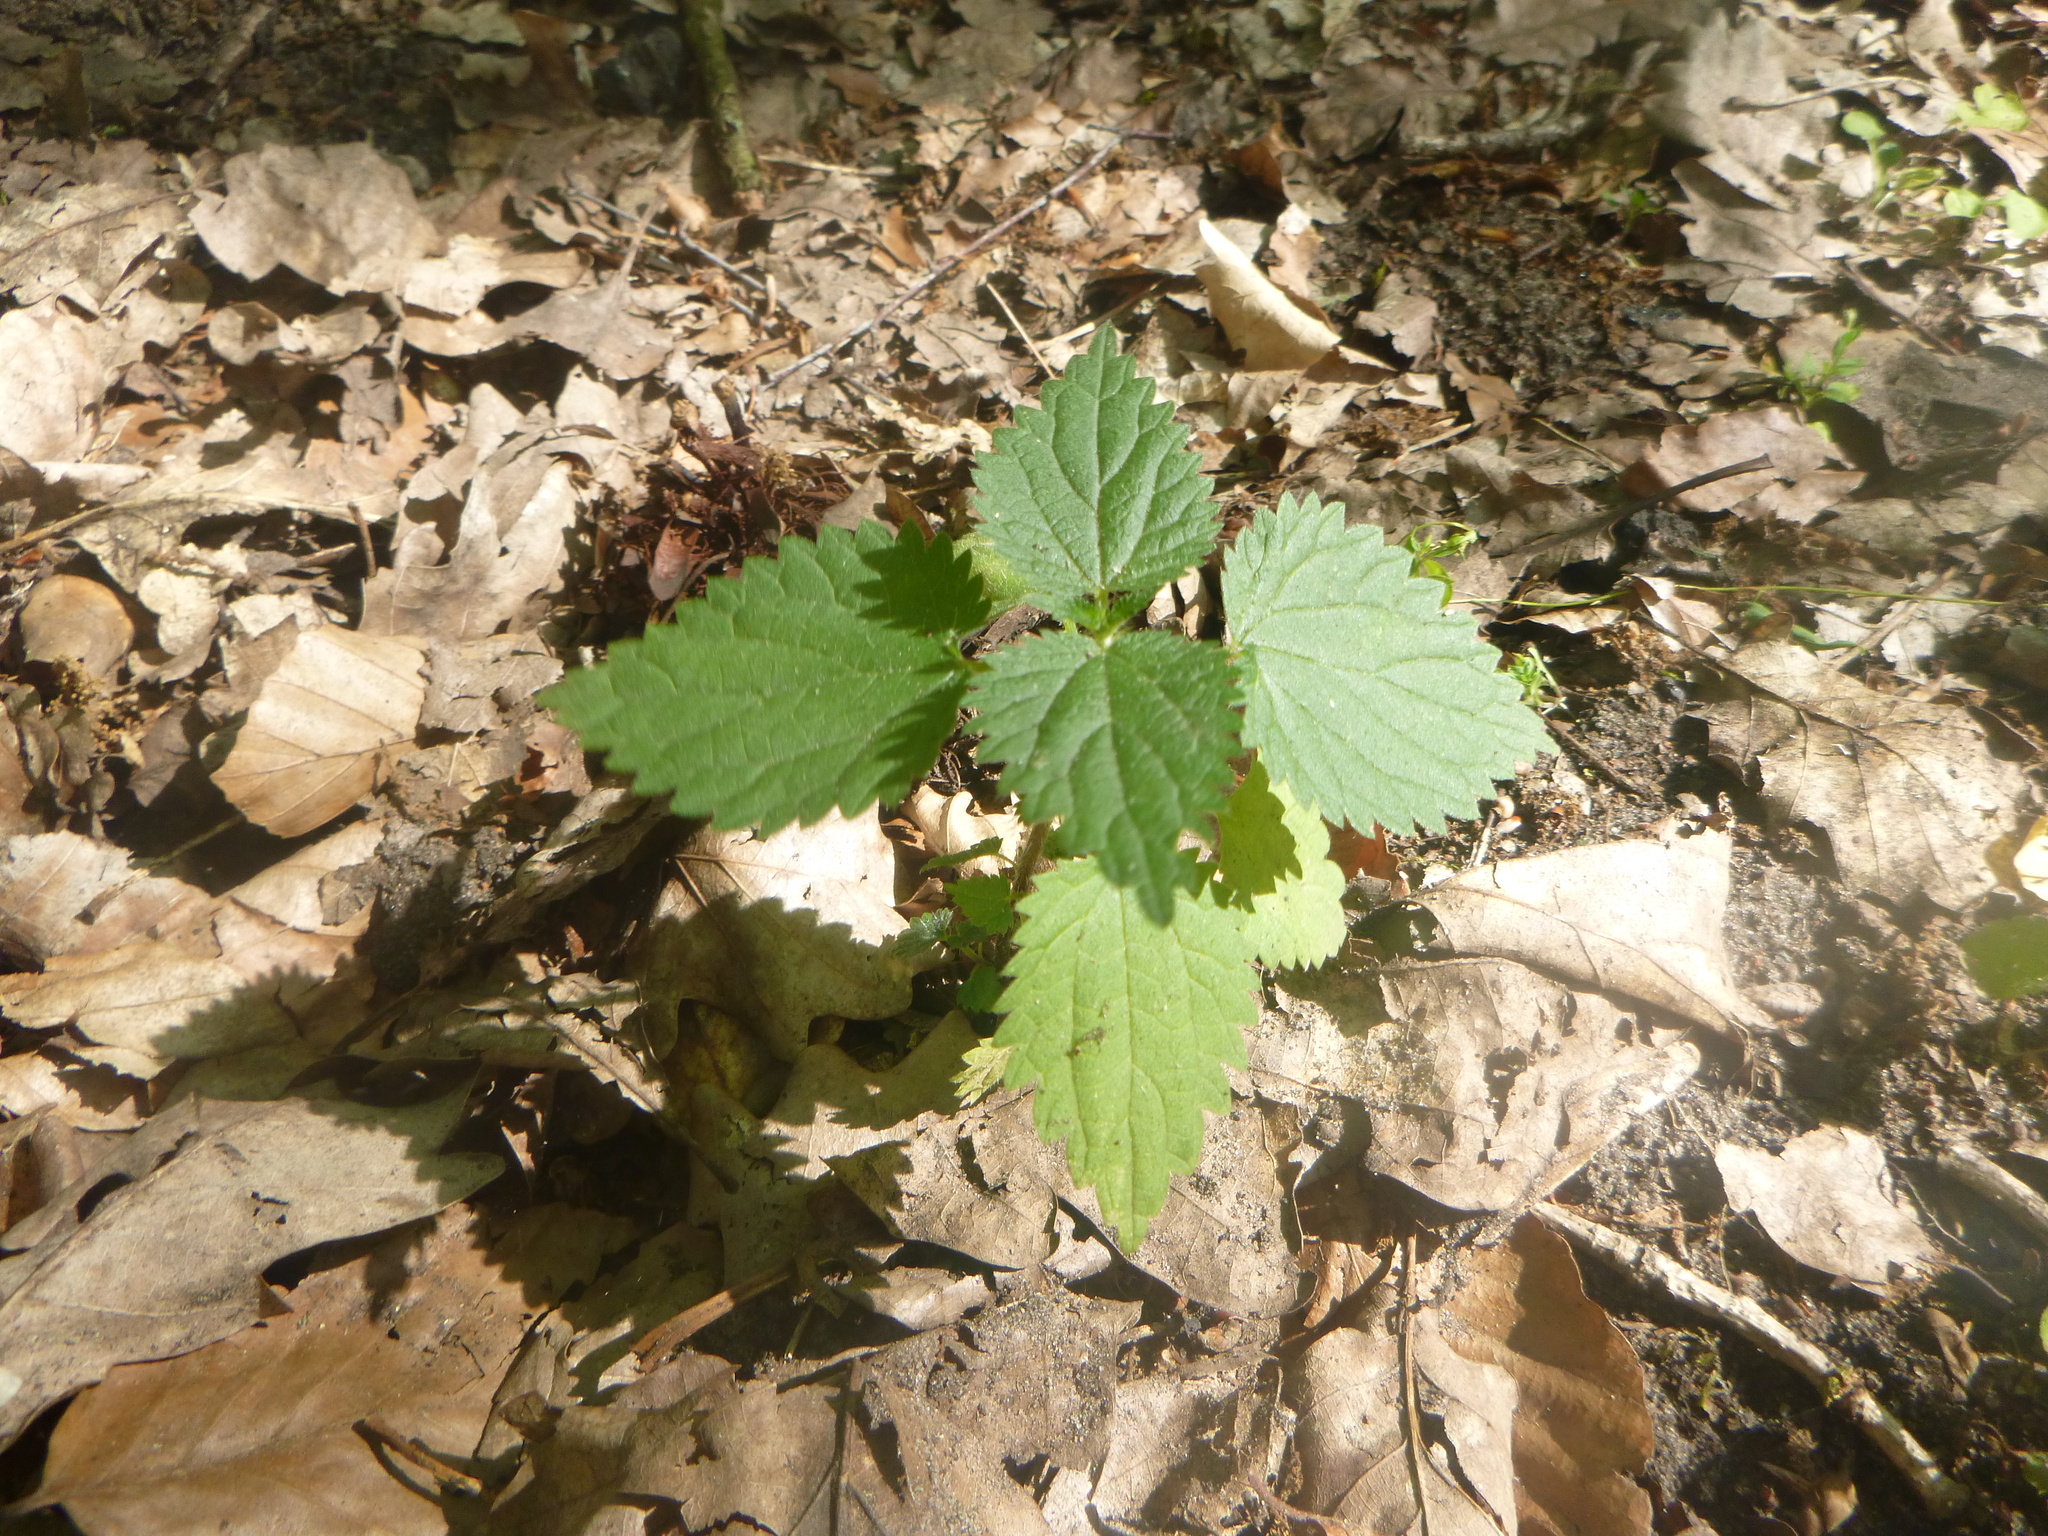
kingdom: Plantae
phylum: Tracheophyta
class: Magnoliopsida
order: Rosales
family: Urticaceae
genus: Urtica
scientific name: Urtica dioica
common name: Common nettle
